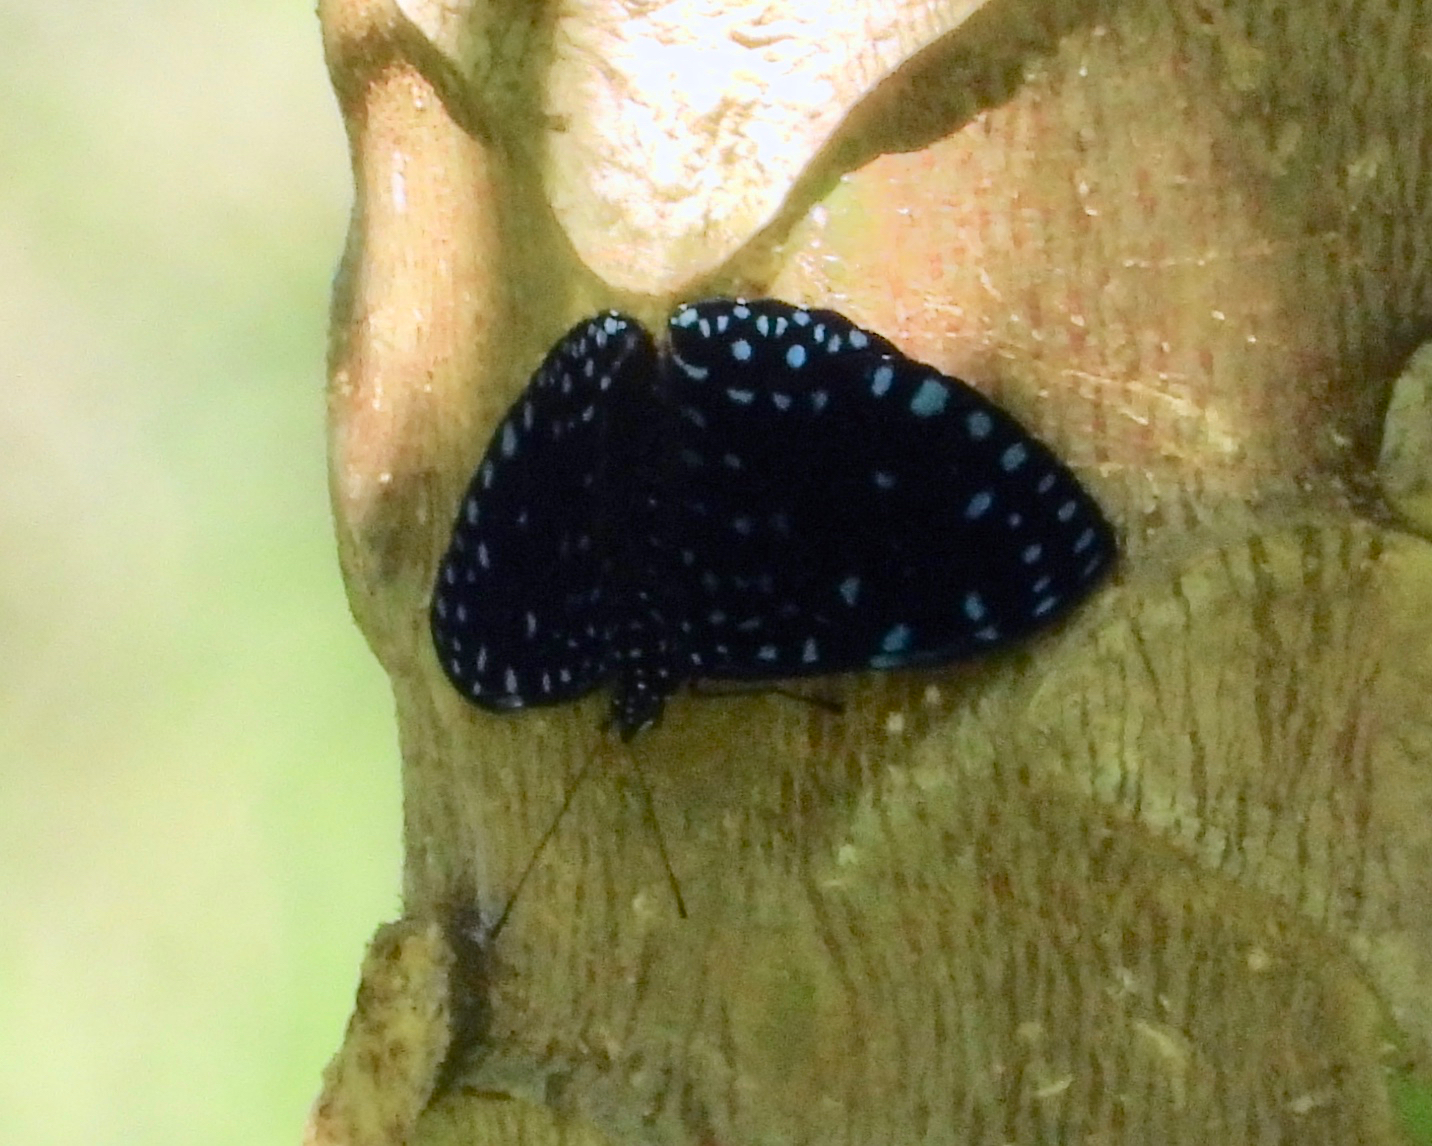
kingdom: Animalia
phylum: Arthropoda
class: Insecta
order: Lepidoptera
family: Nymphalidae
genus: Hamadryas
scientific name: Hamadryas laodamia
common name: Starry night cracker
